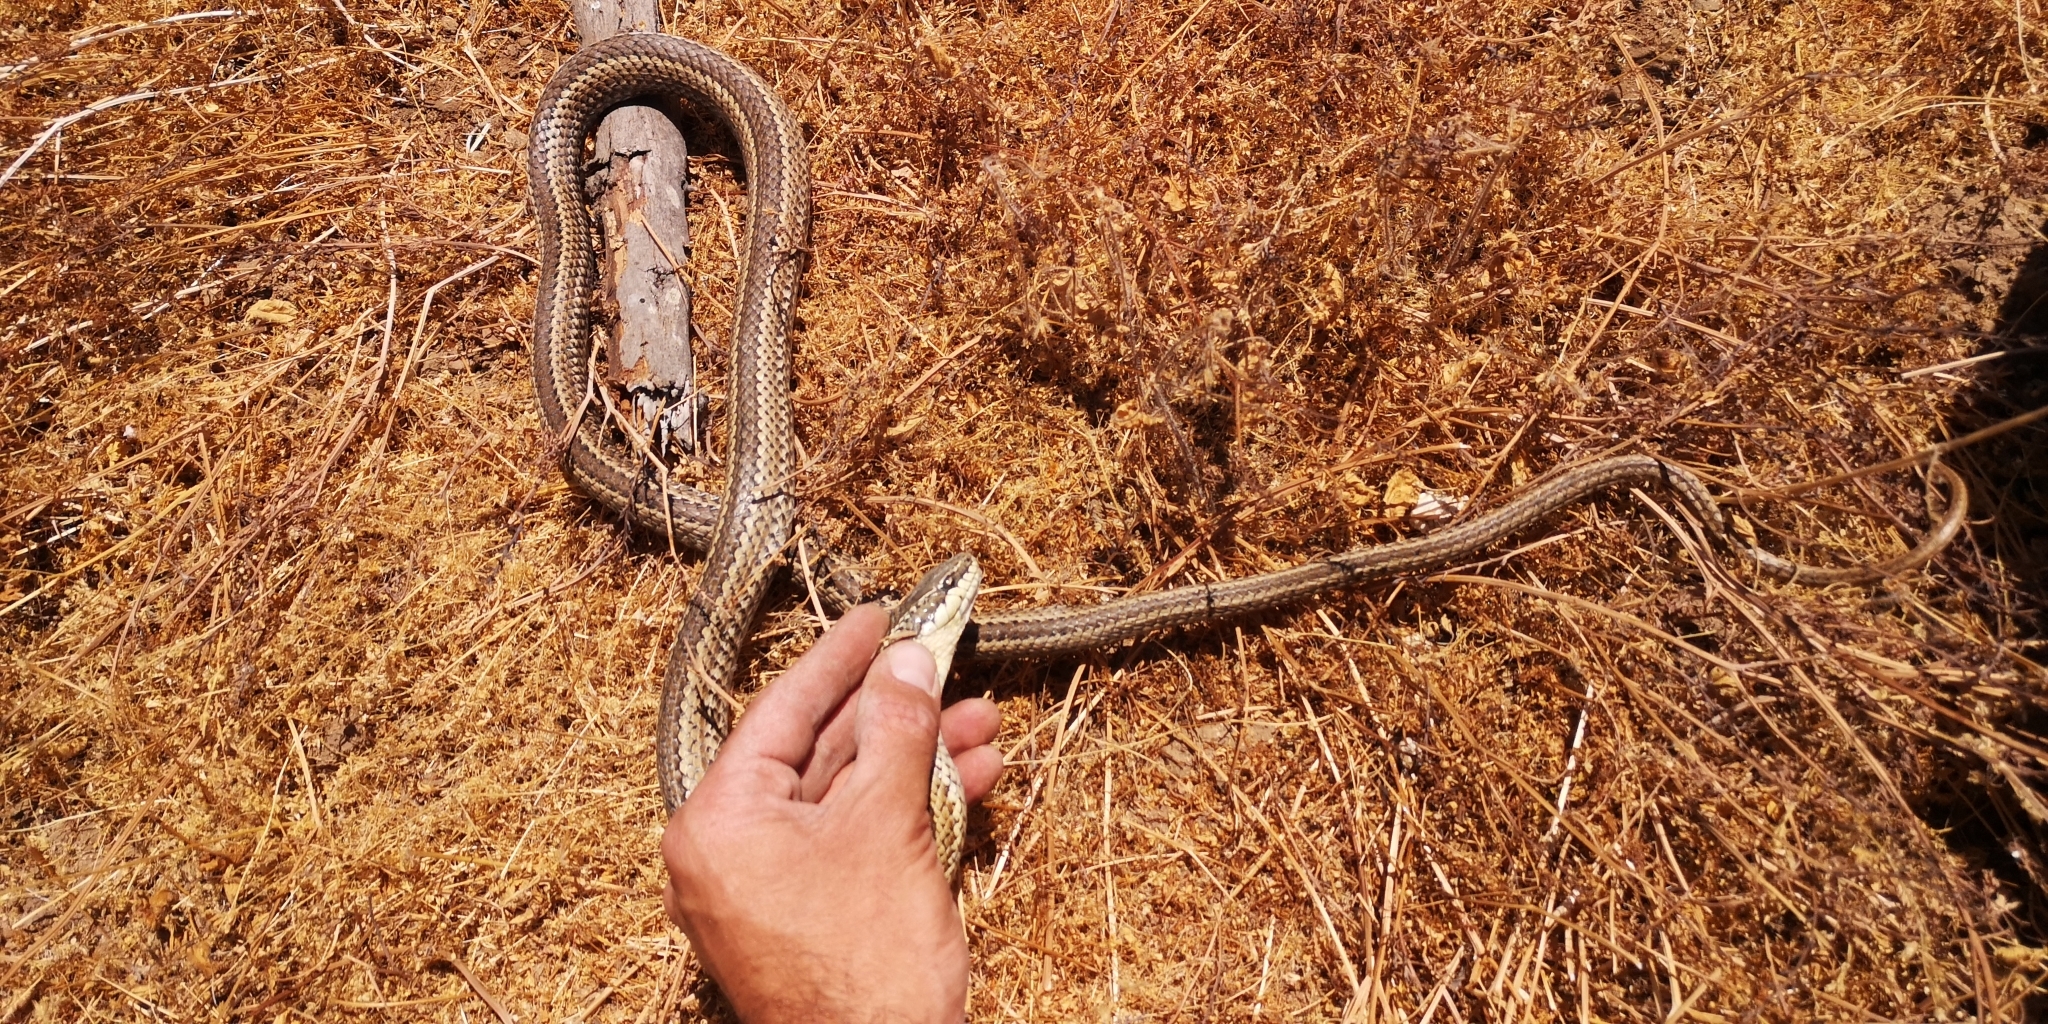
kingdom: Animalia
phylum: Chordata
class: Squamata
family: Colubridae
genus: Philodryas
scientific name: Philodryas chamissonis
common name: Chilean green racer
